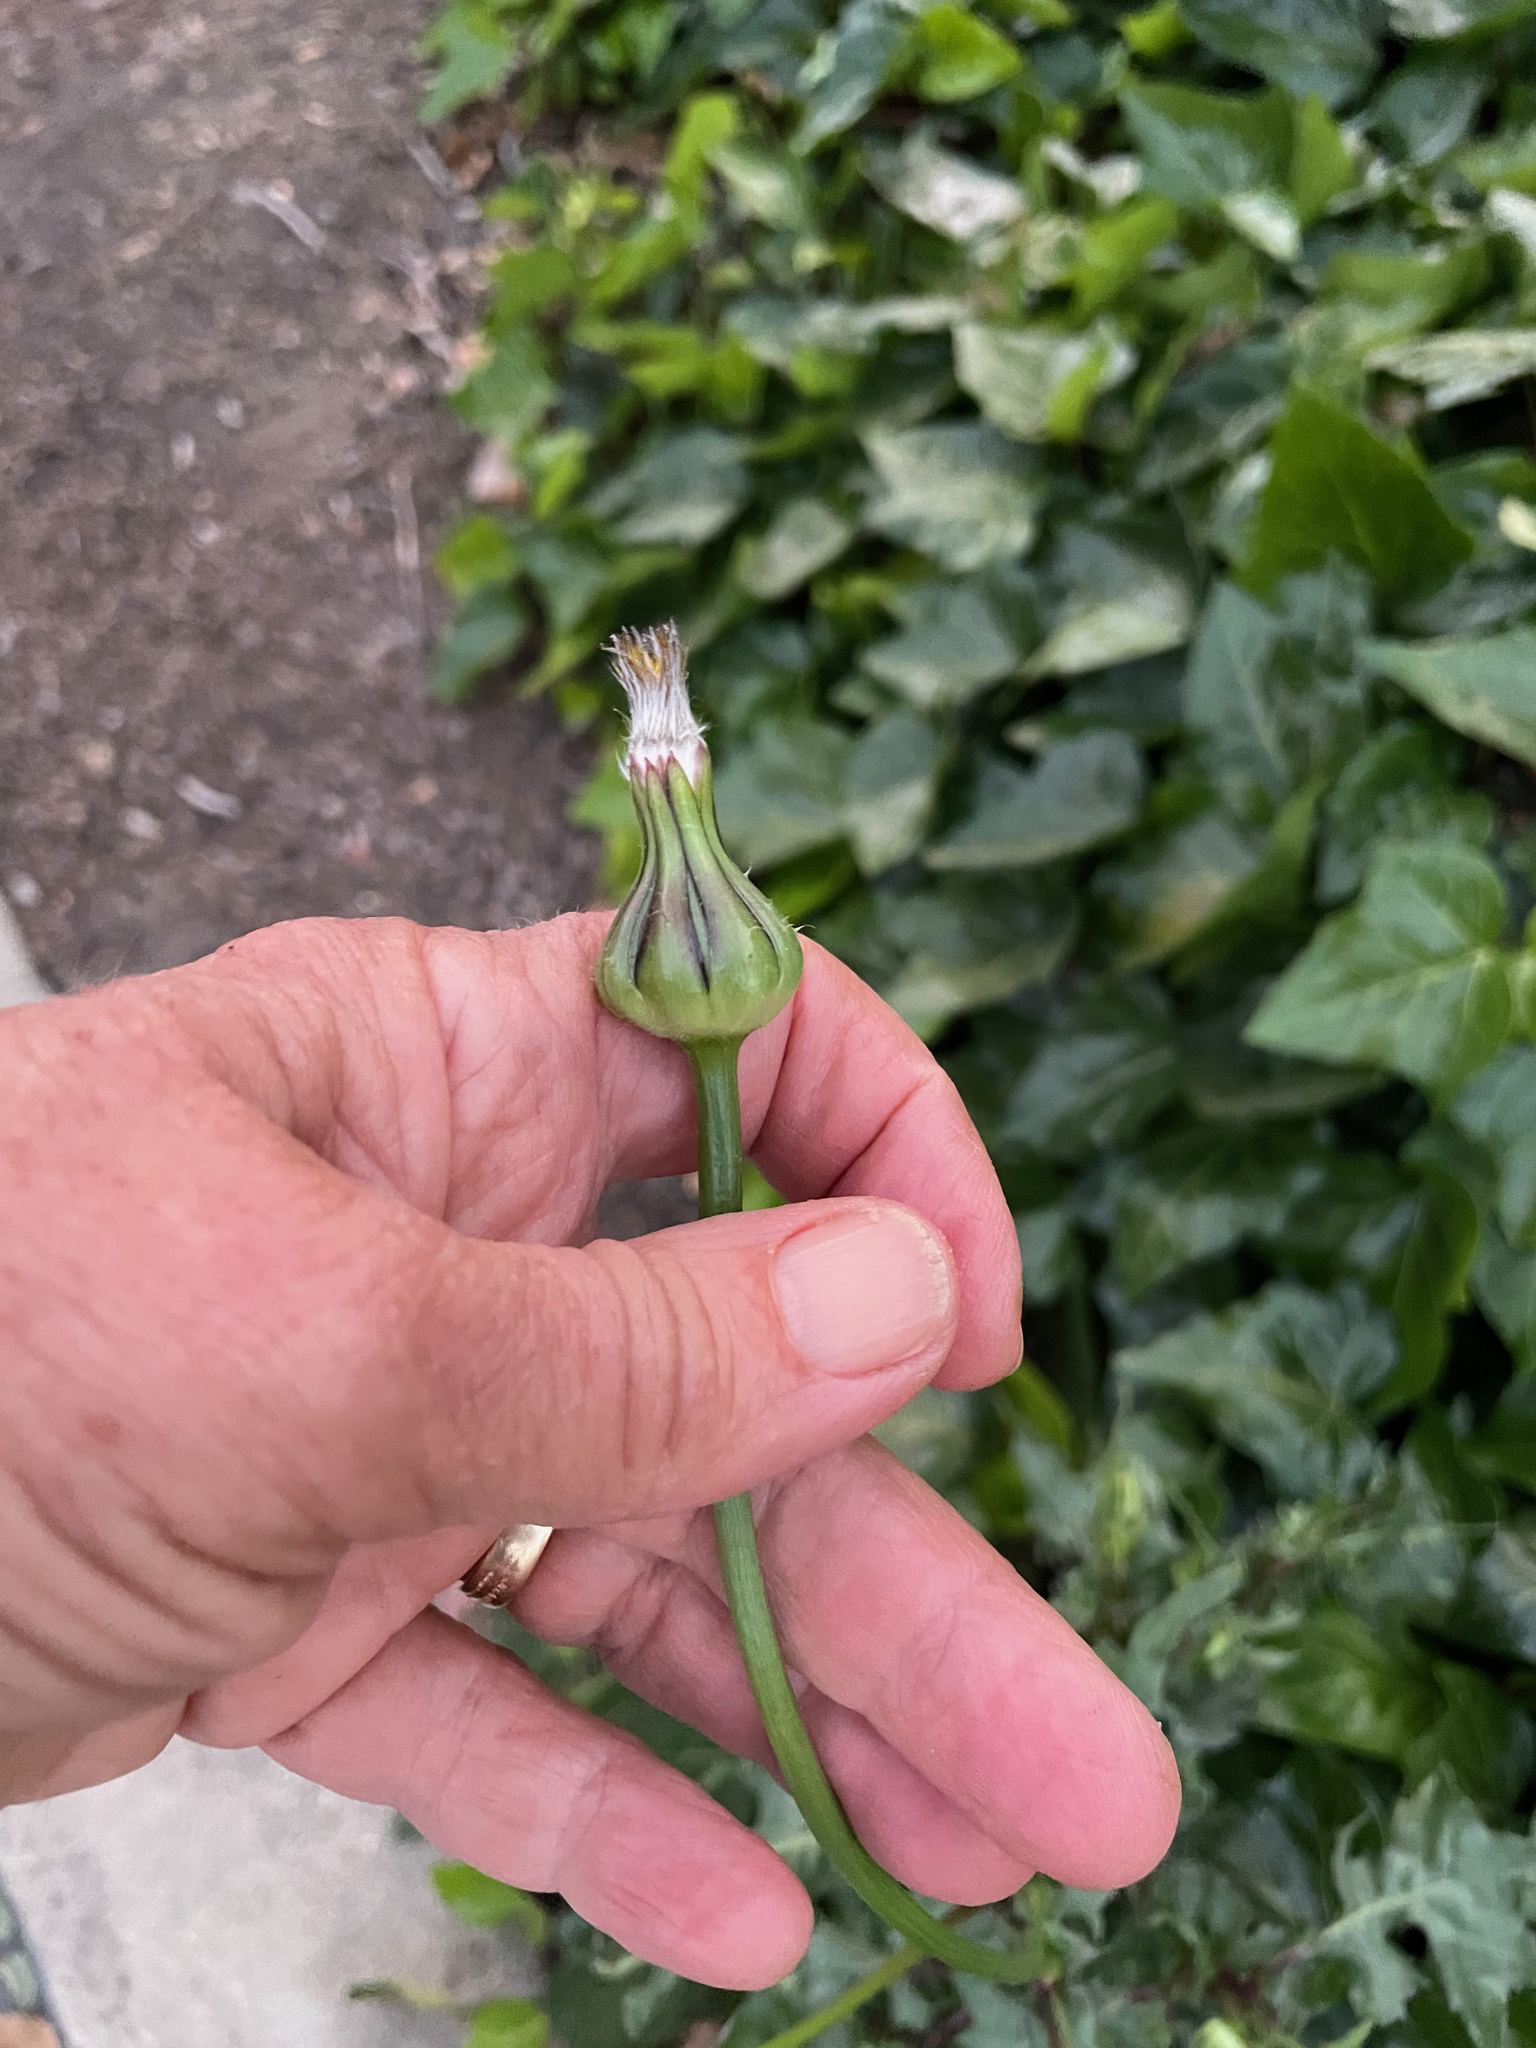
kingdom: Plantae
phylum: Tracheophyta
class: Magnoliopsida
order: Asterales
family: Asteraceae
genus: Urospermum
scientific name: Urospermum picroides
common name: False hawkbit
